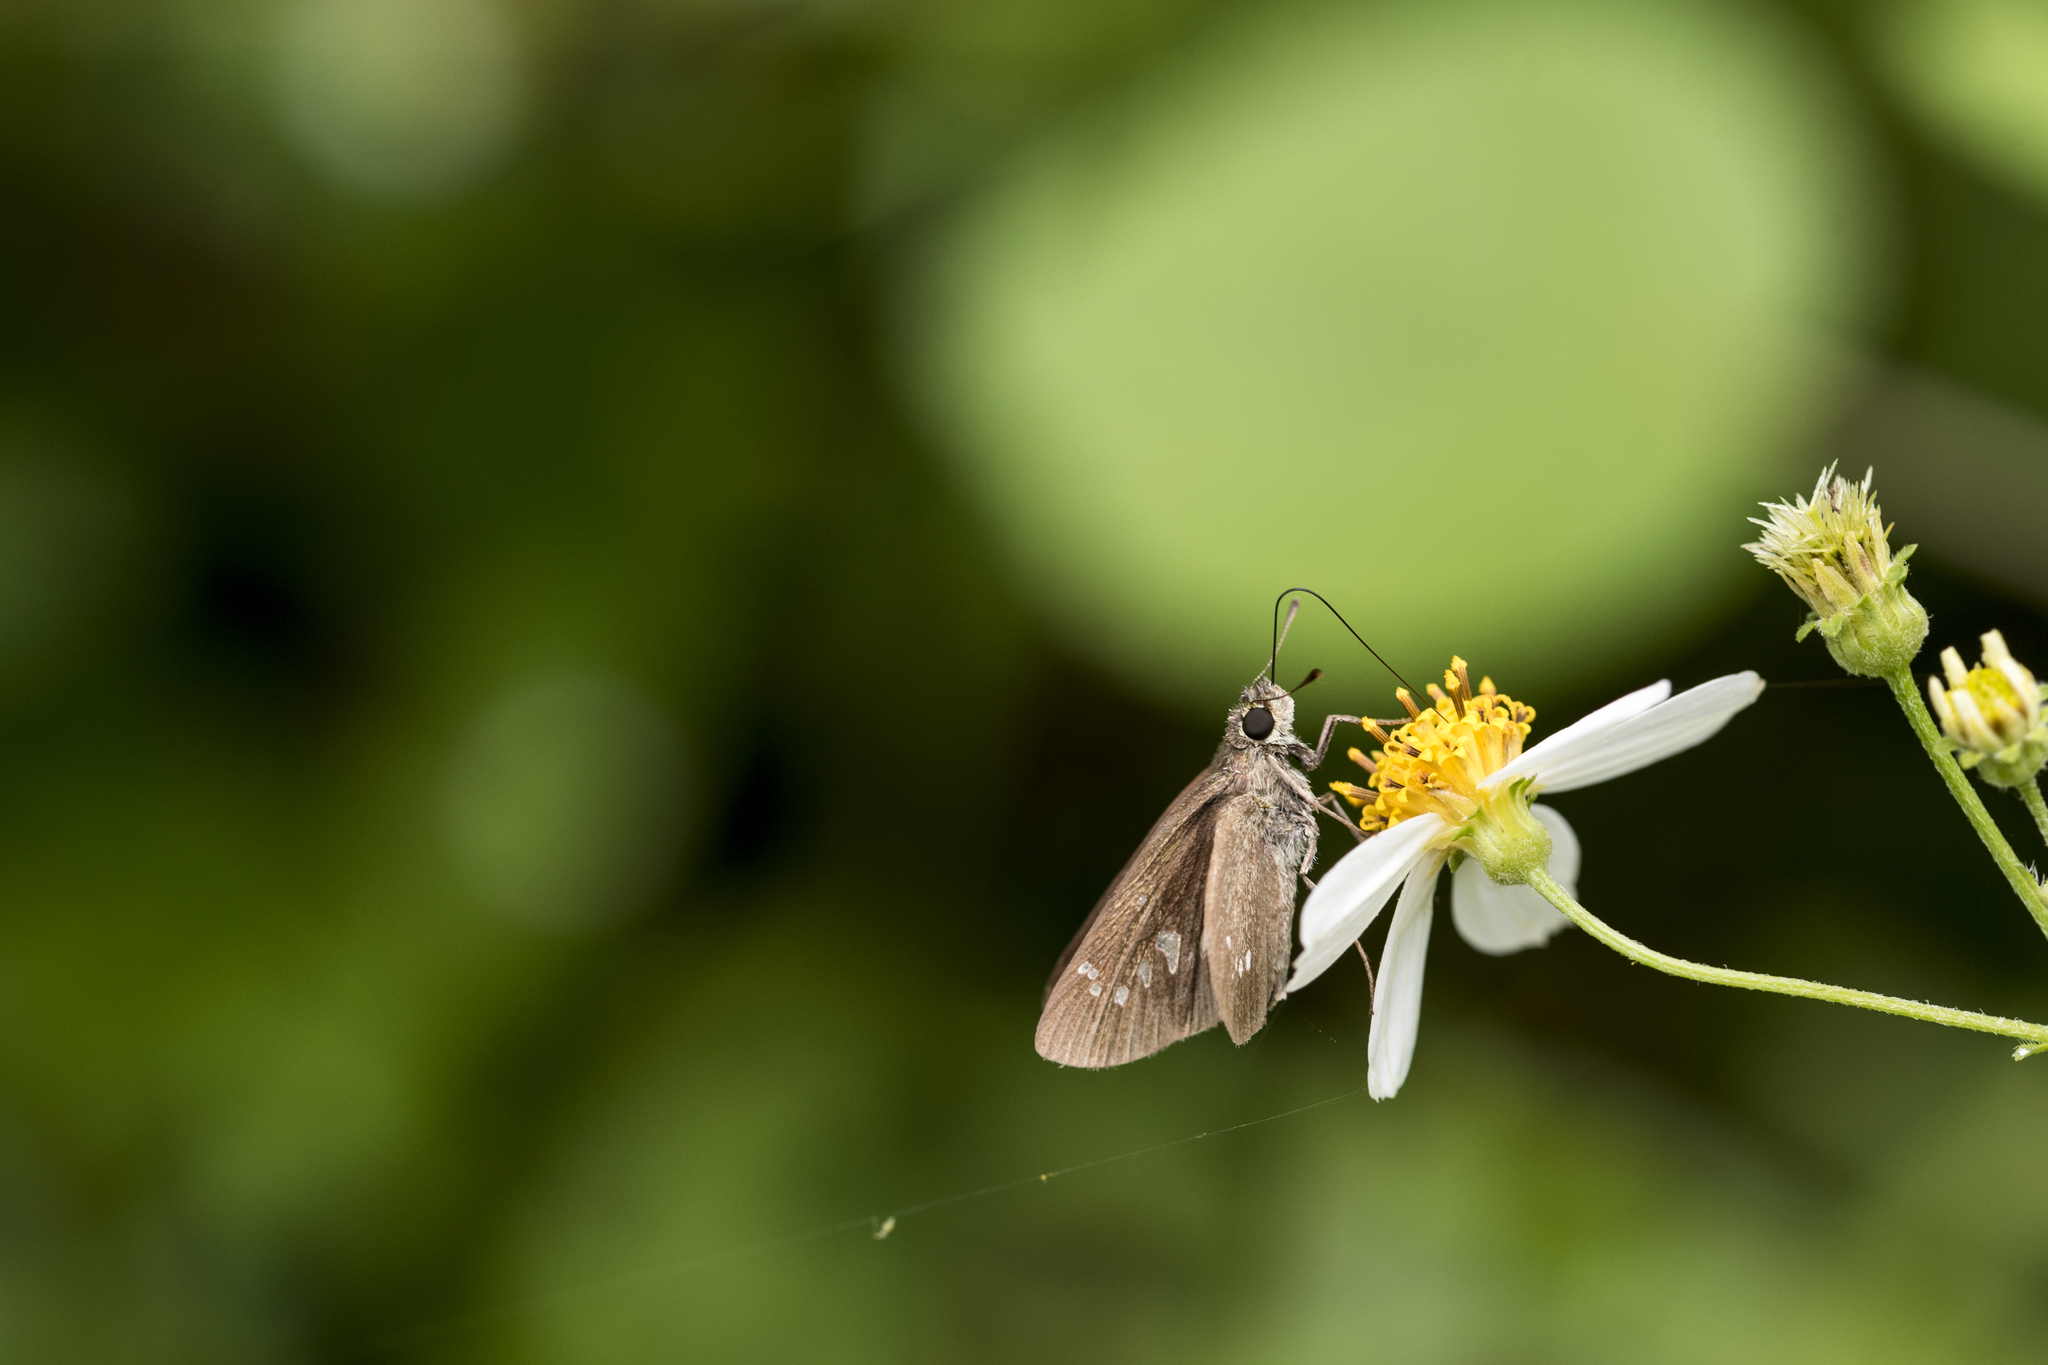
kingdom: Animalia
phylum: Arthropoda
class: Insecta
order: Lepidoptera
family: Hesperiidae
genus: Borbo
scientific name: Borbo cinnara
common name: Formosan swift
